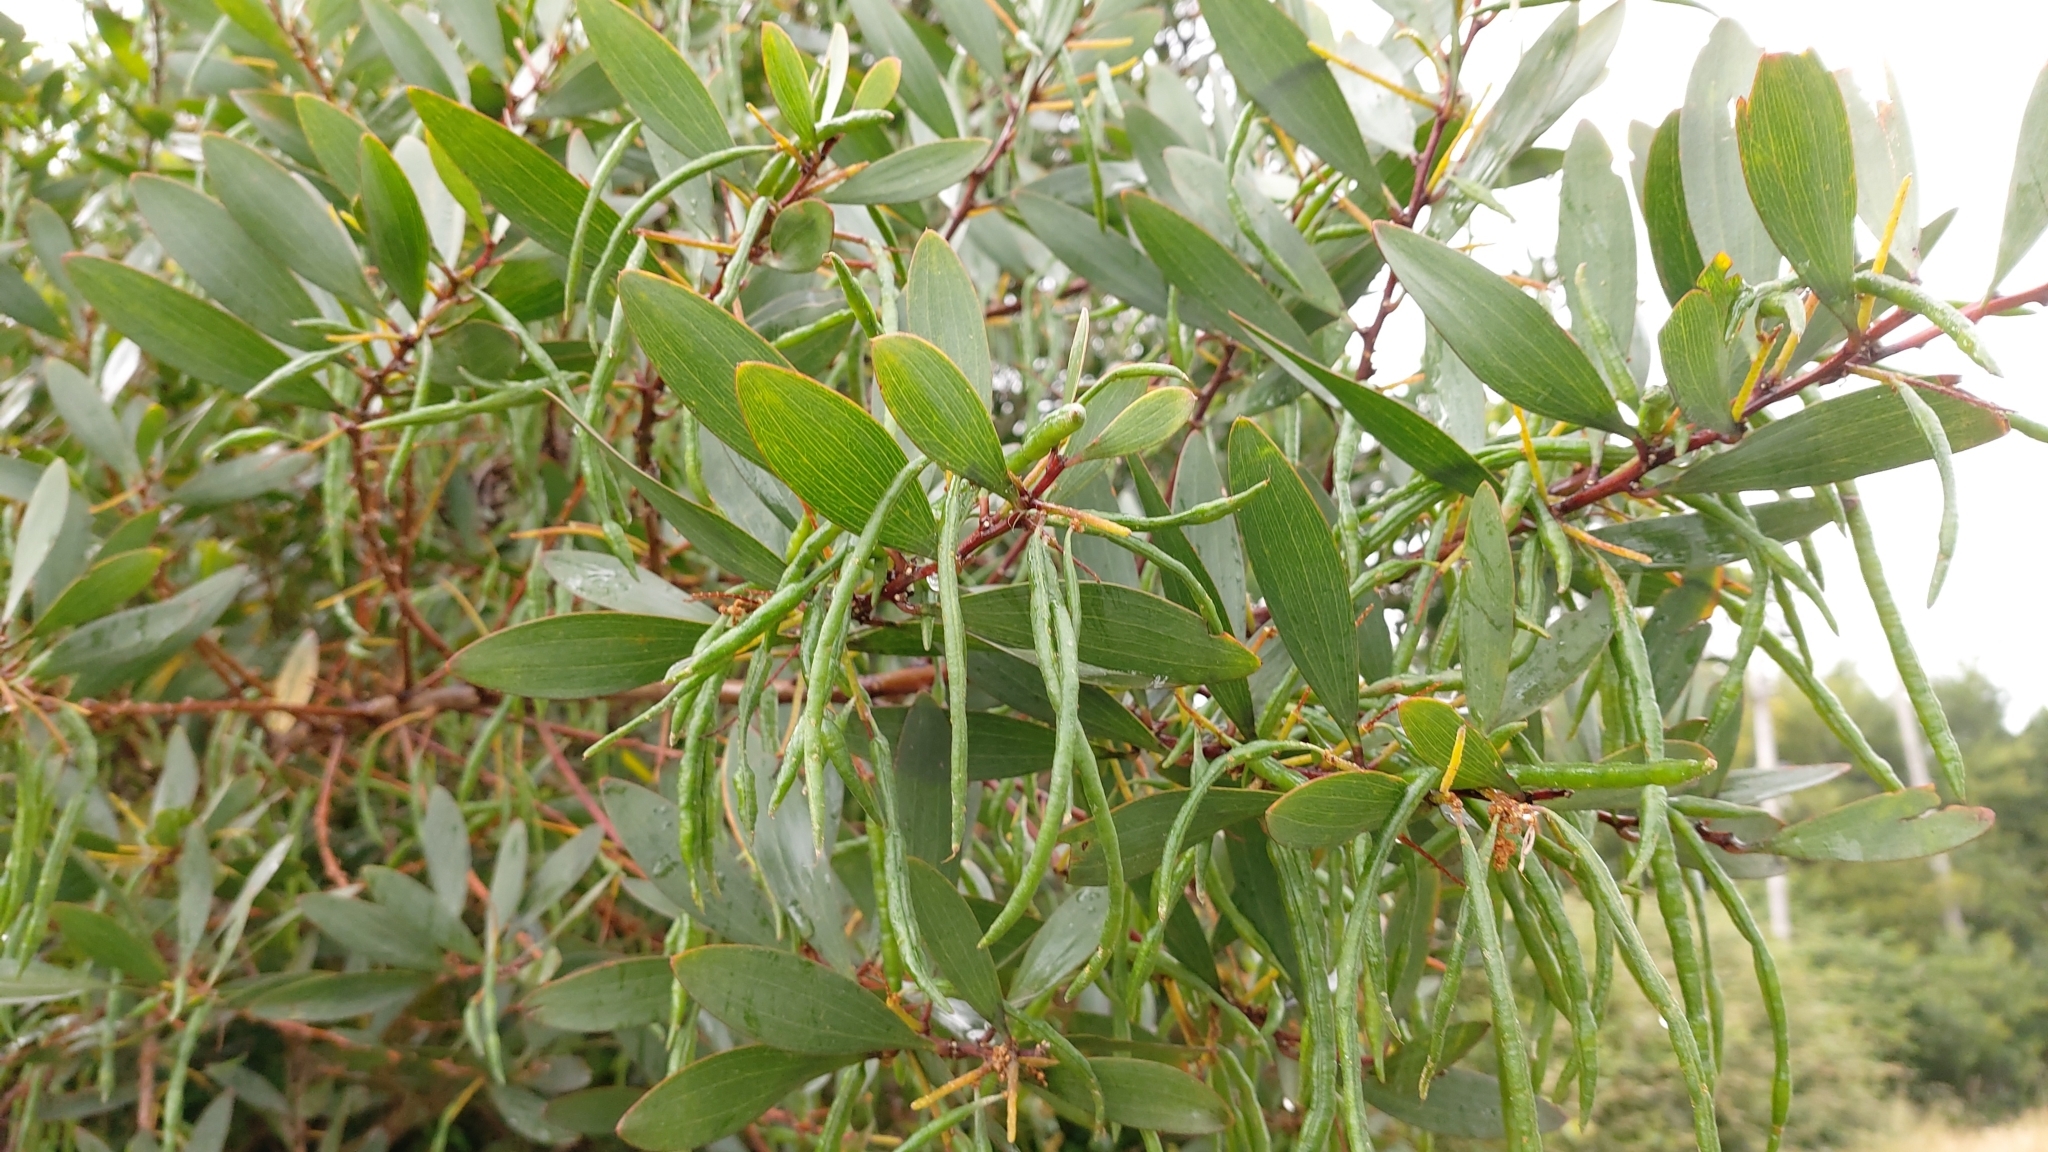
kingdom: Plantae
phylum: Tracheophyta
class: Magnoliopsida
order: Fabales
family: Fabaceae
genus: Acacia
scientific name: Acacia longifolia
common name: Sydney golden wattle
